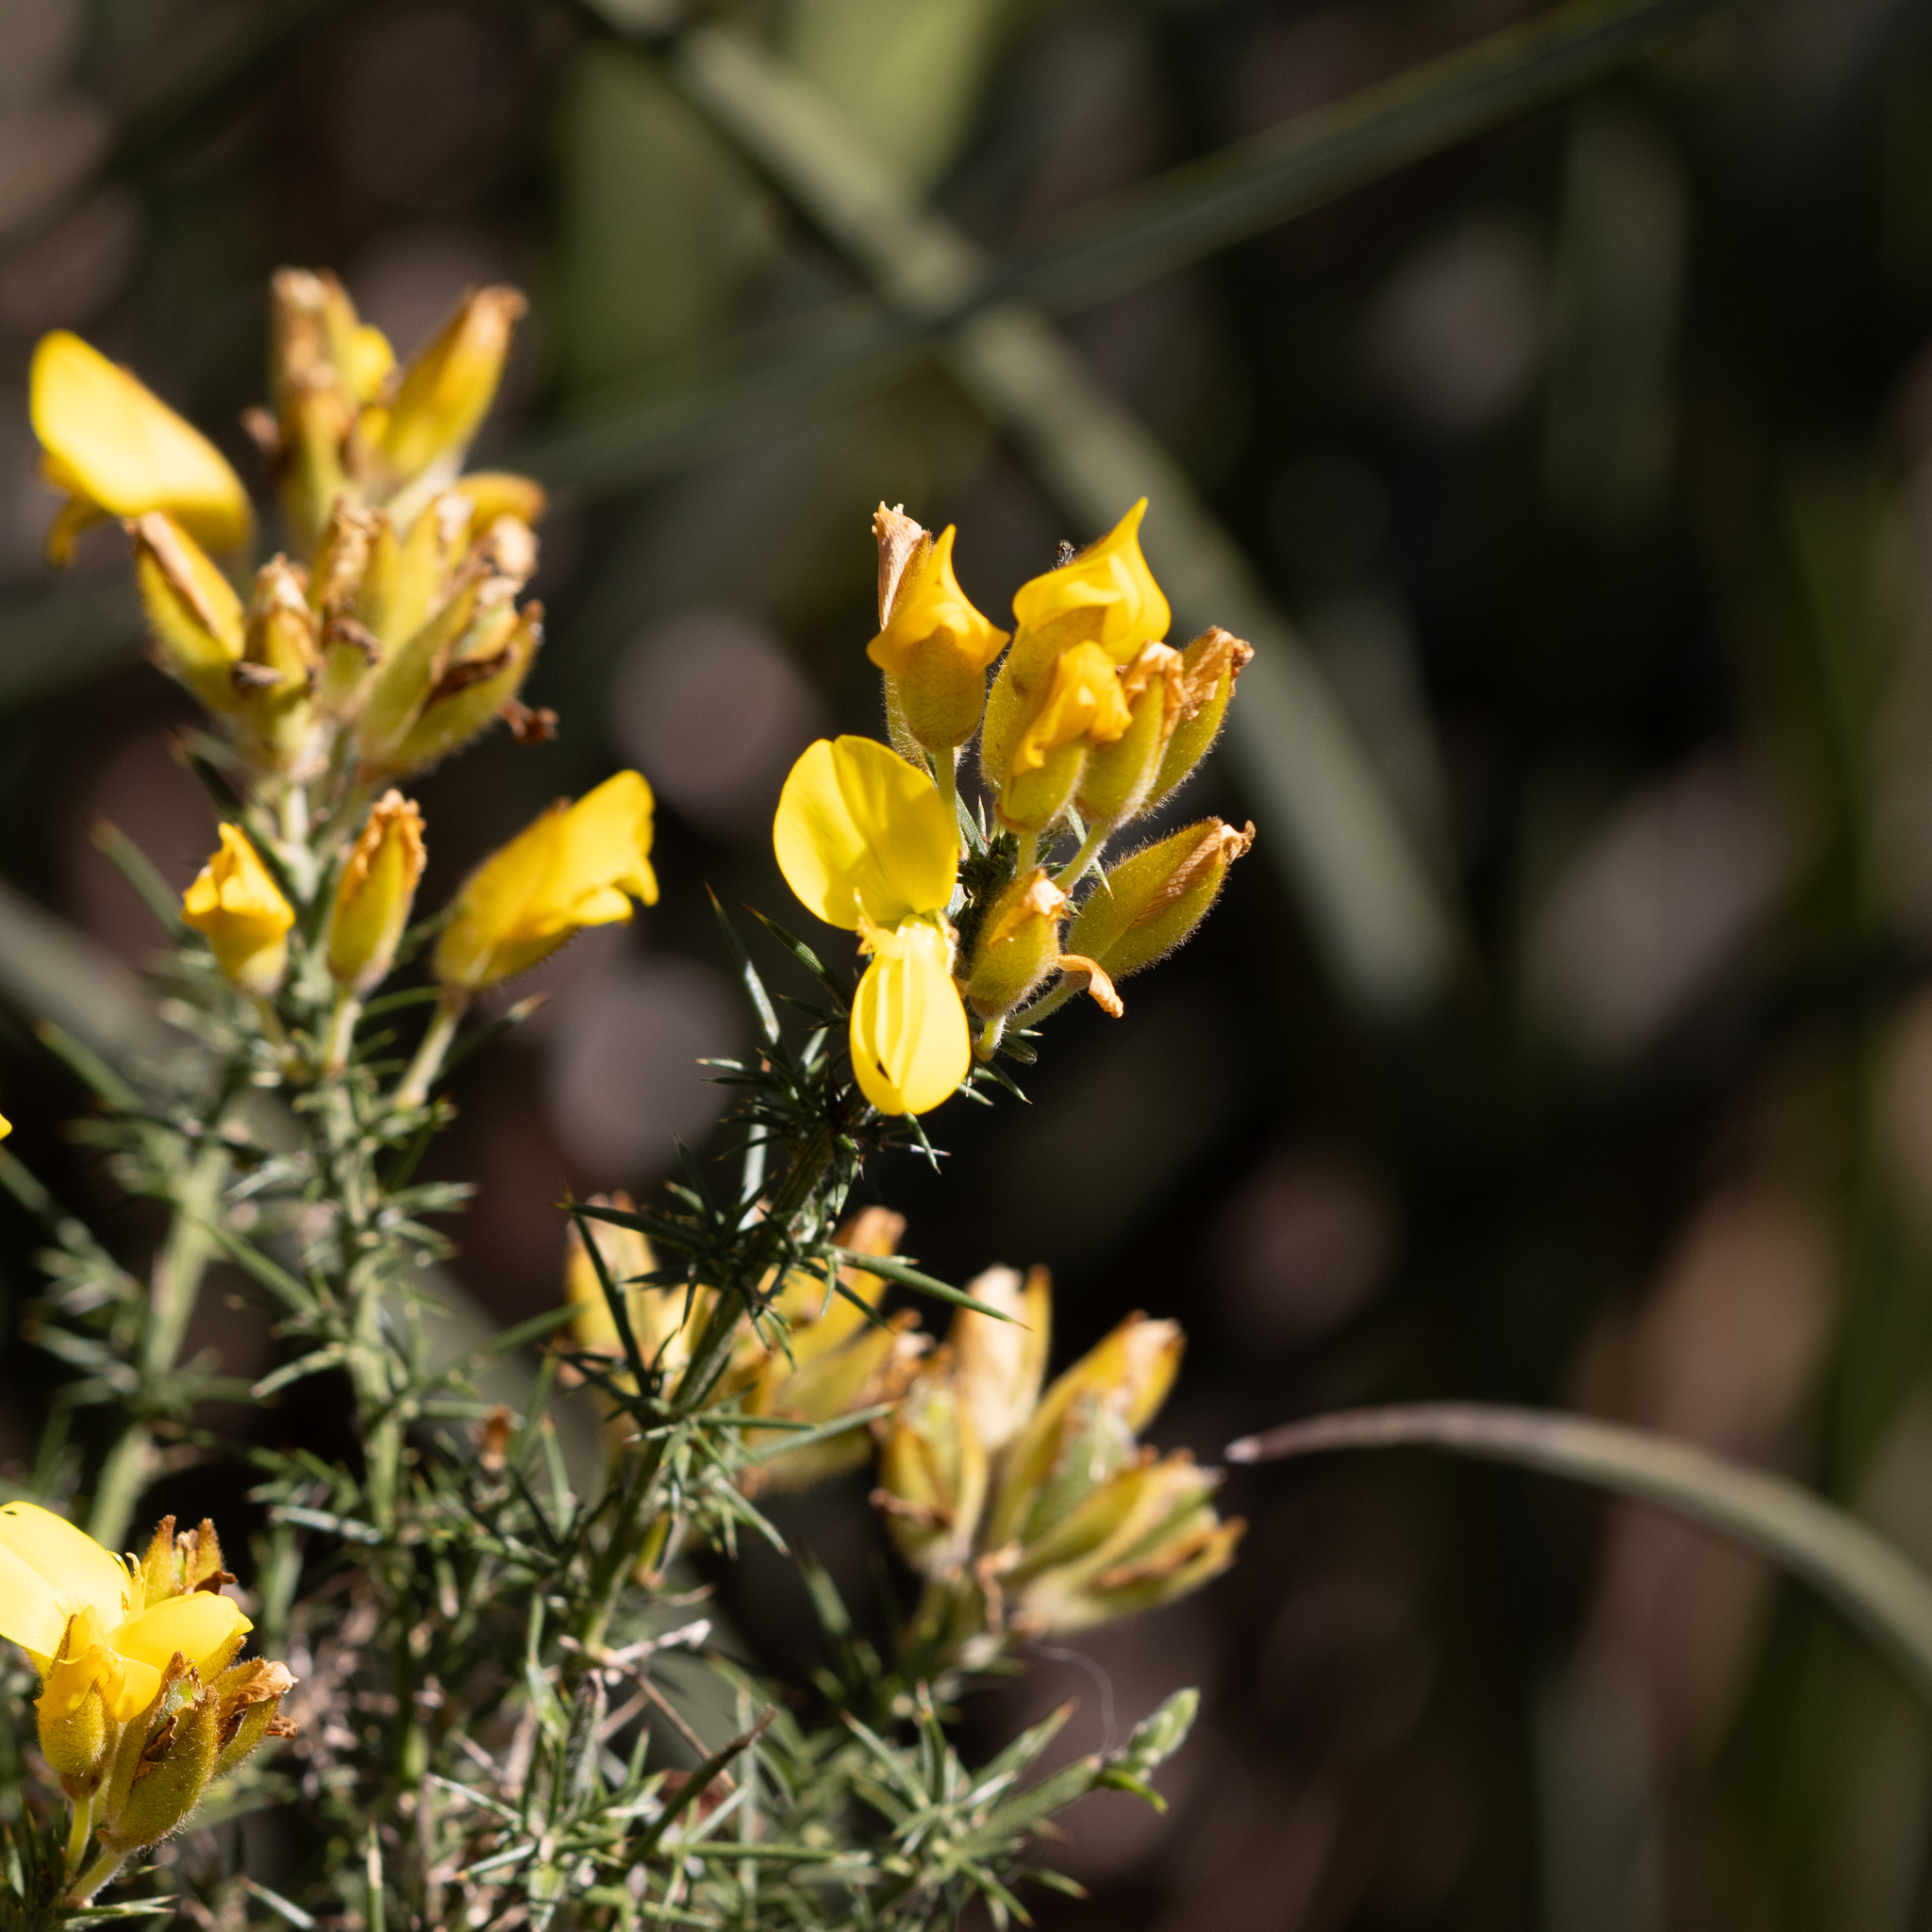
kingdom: Plantae
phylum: Tracheophyta
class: Magnoliopsida
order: Fabales
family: Fabaceae
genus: Ulex
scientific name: Ulex europaeus
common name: Common gorse
